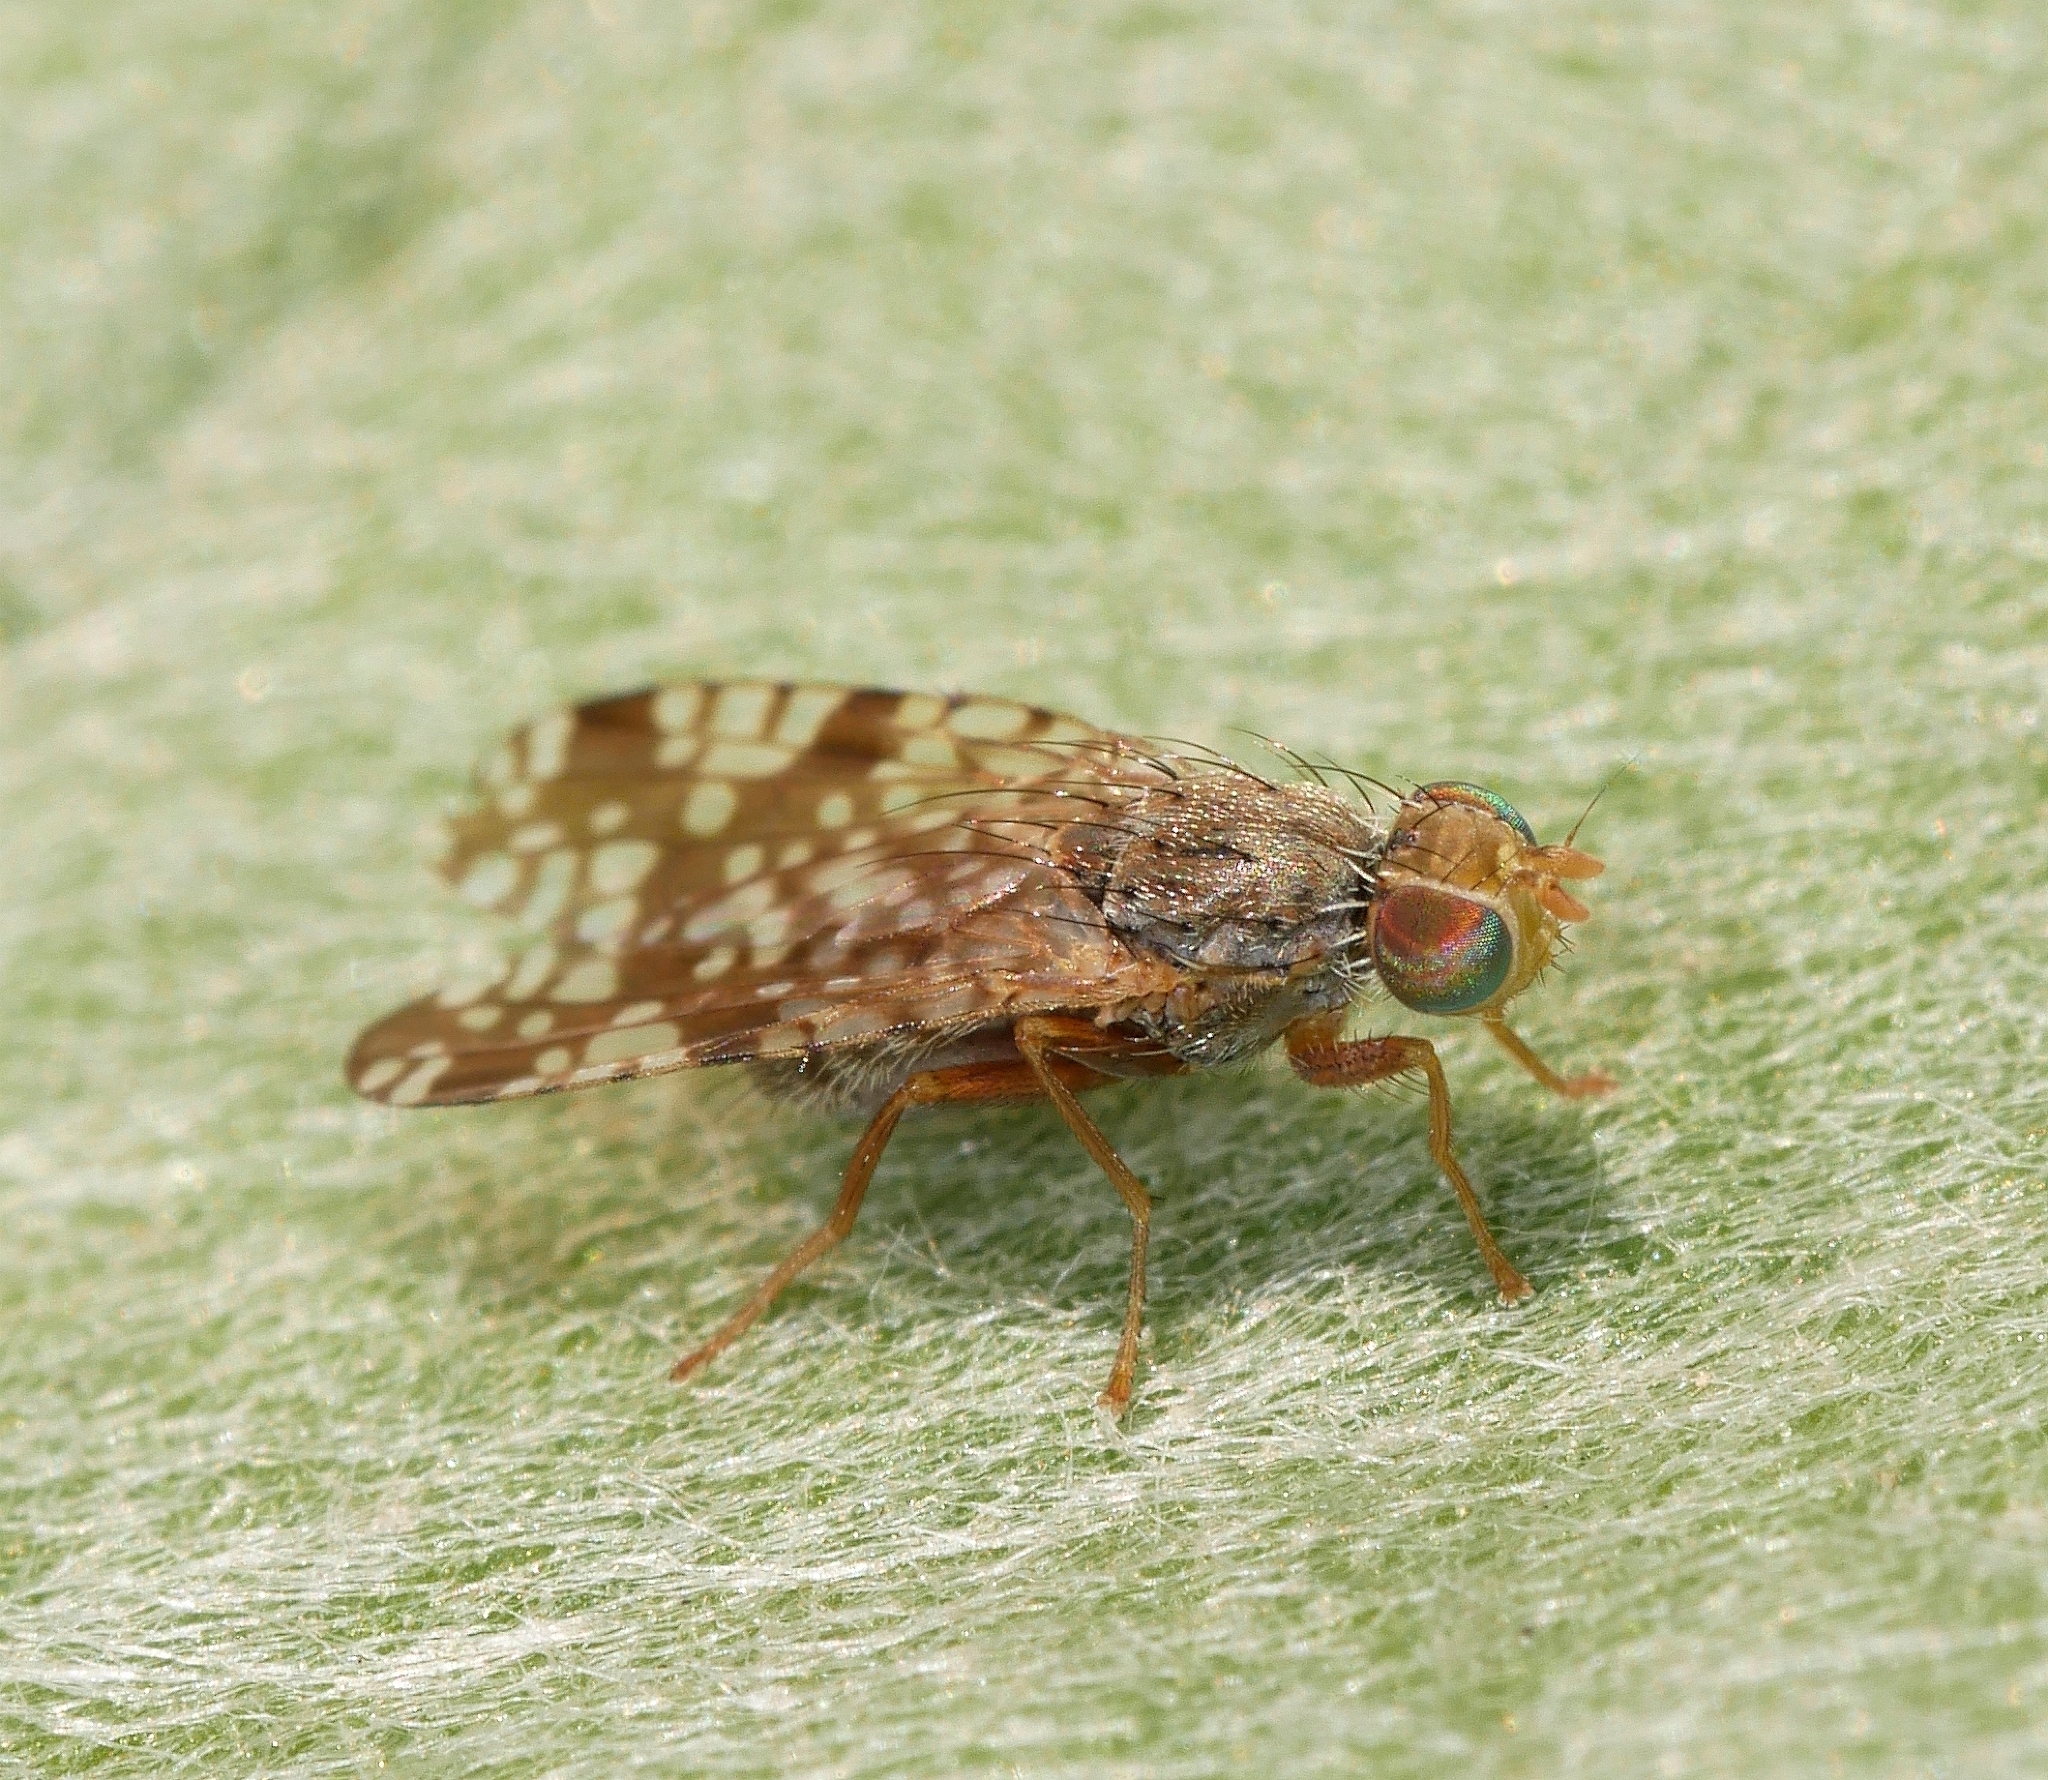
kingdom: Animalia
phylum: Arthropoda
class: Insecta
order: Diptera
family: Tephritidae
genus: Neotephritis
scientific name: Neotephritis finalis
